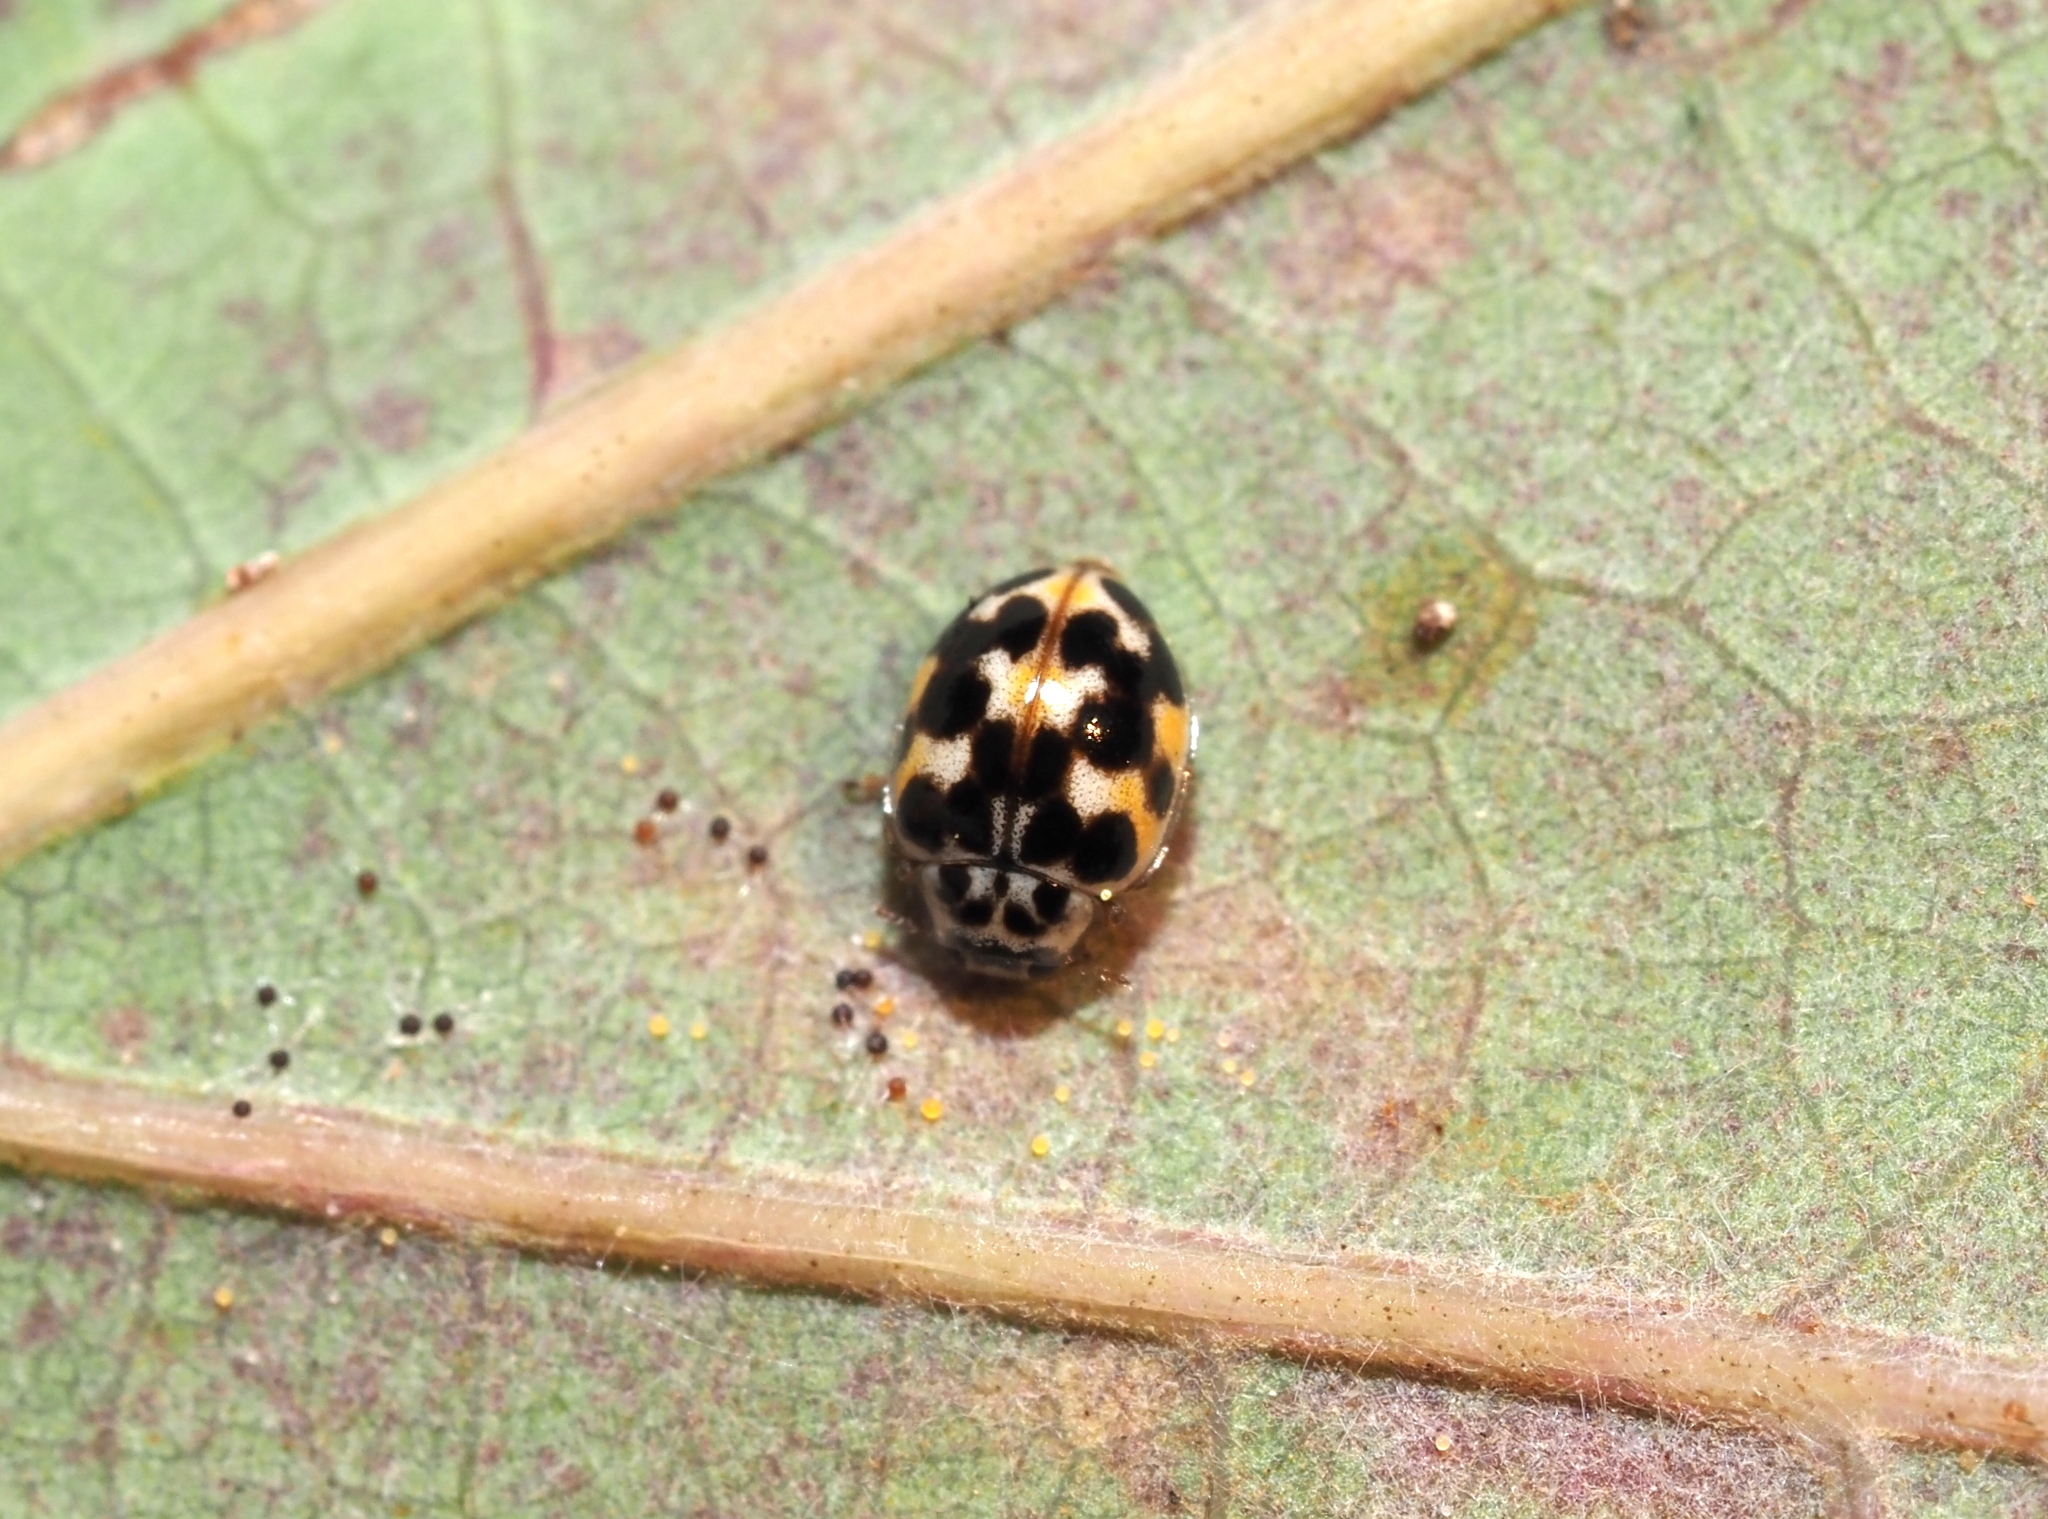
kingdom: Animalia
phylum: Arthropoda
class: Insecta
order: Coleoptera
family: Coccinellidae
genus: Psyllobora
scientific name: Psyllobora vigintimaculata
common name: Ladybird beetle
